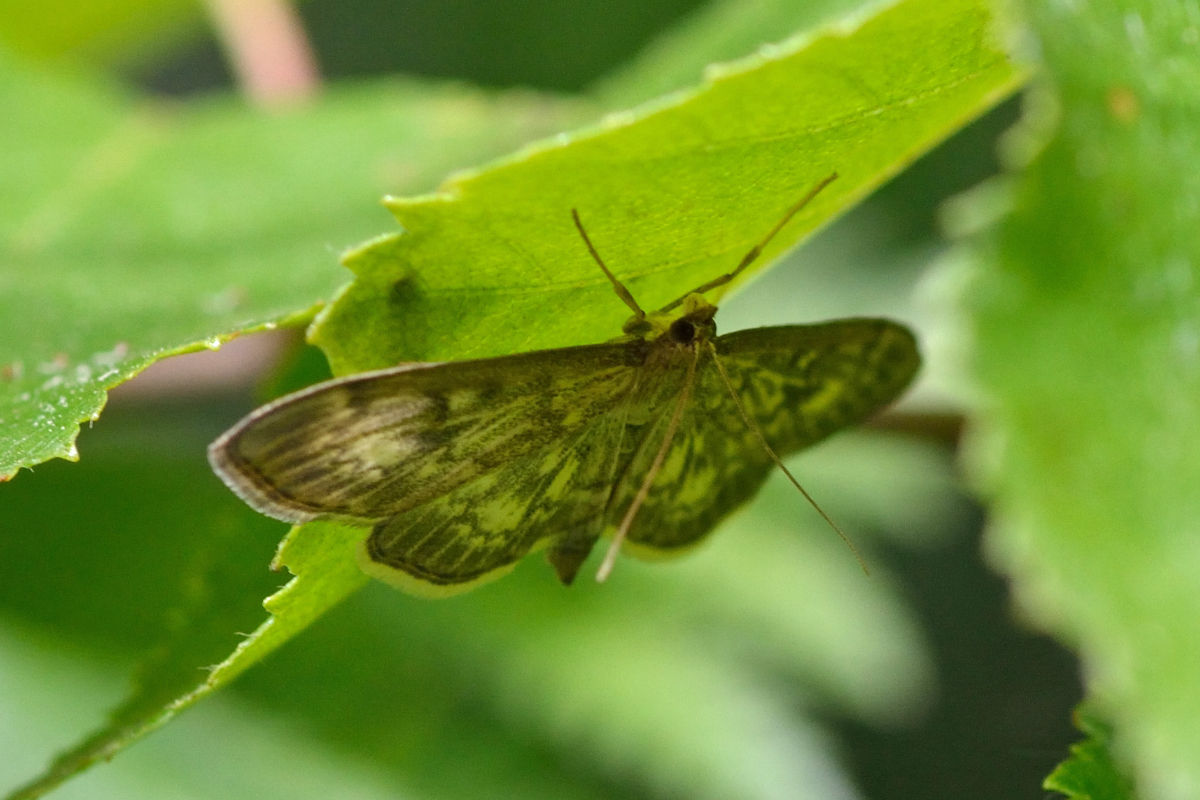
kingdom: Animalia
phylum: Arthropoda
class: Insecta
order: Lepidoptera
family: Crambidae
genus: Anania
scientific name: Anania lancealis
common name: Long-winged pearl
